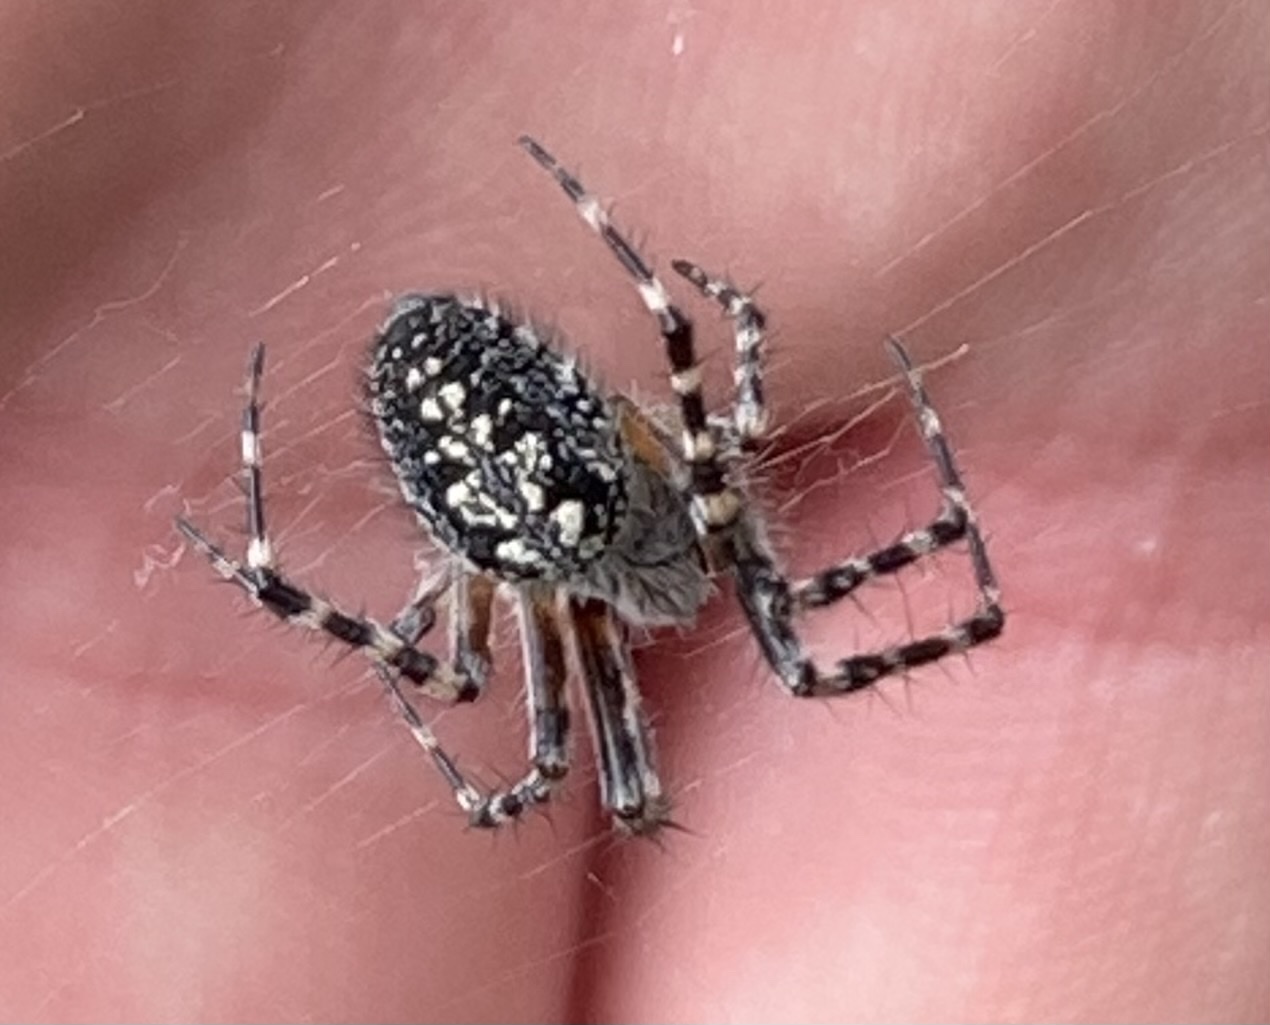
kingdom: Animalia
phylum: Arthropoda
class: Arachnida
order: Araneae
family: Araneidae
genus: Aculepeira
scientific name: Aculepeira carbonarioides
